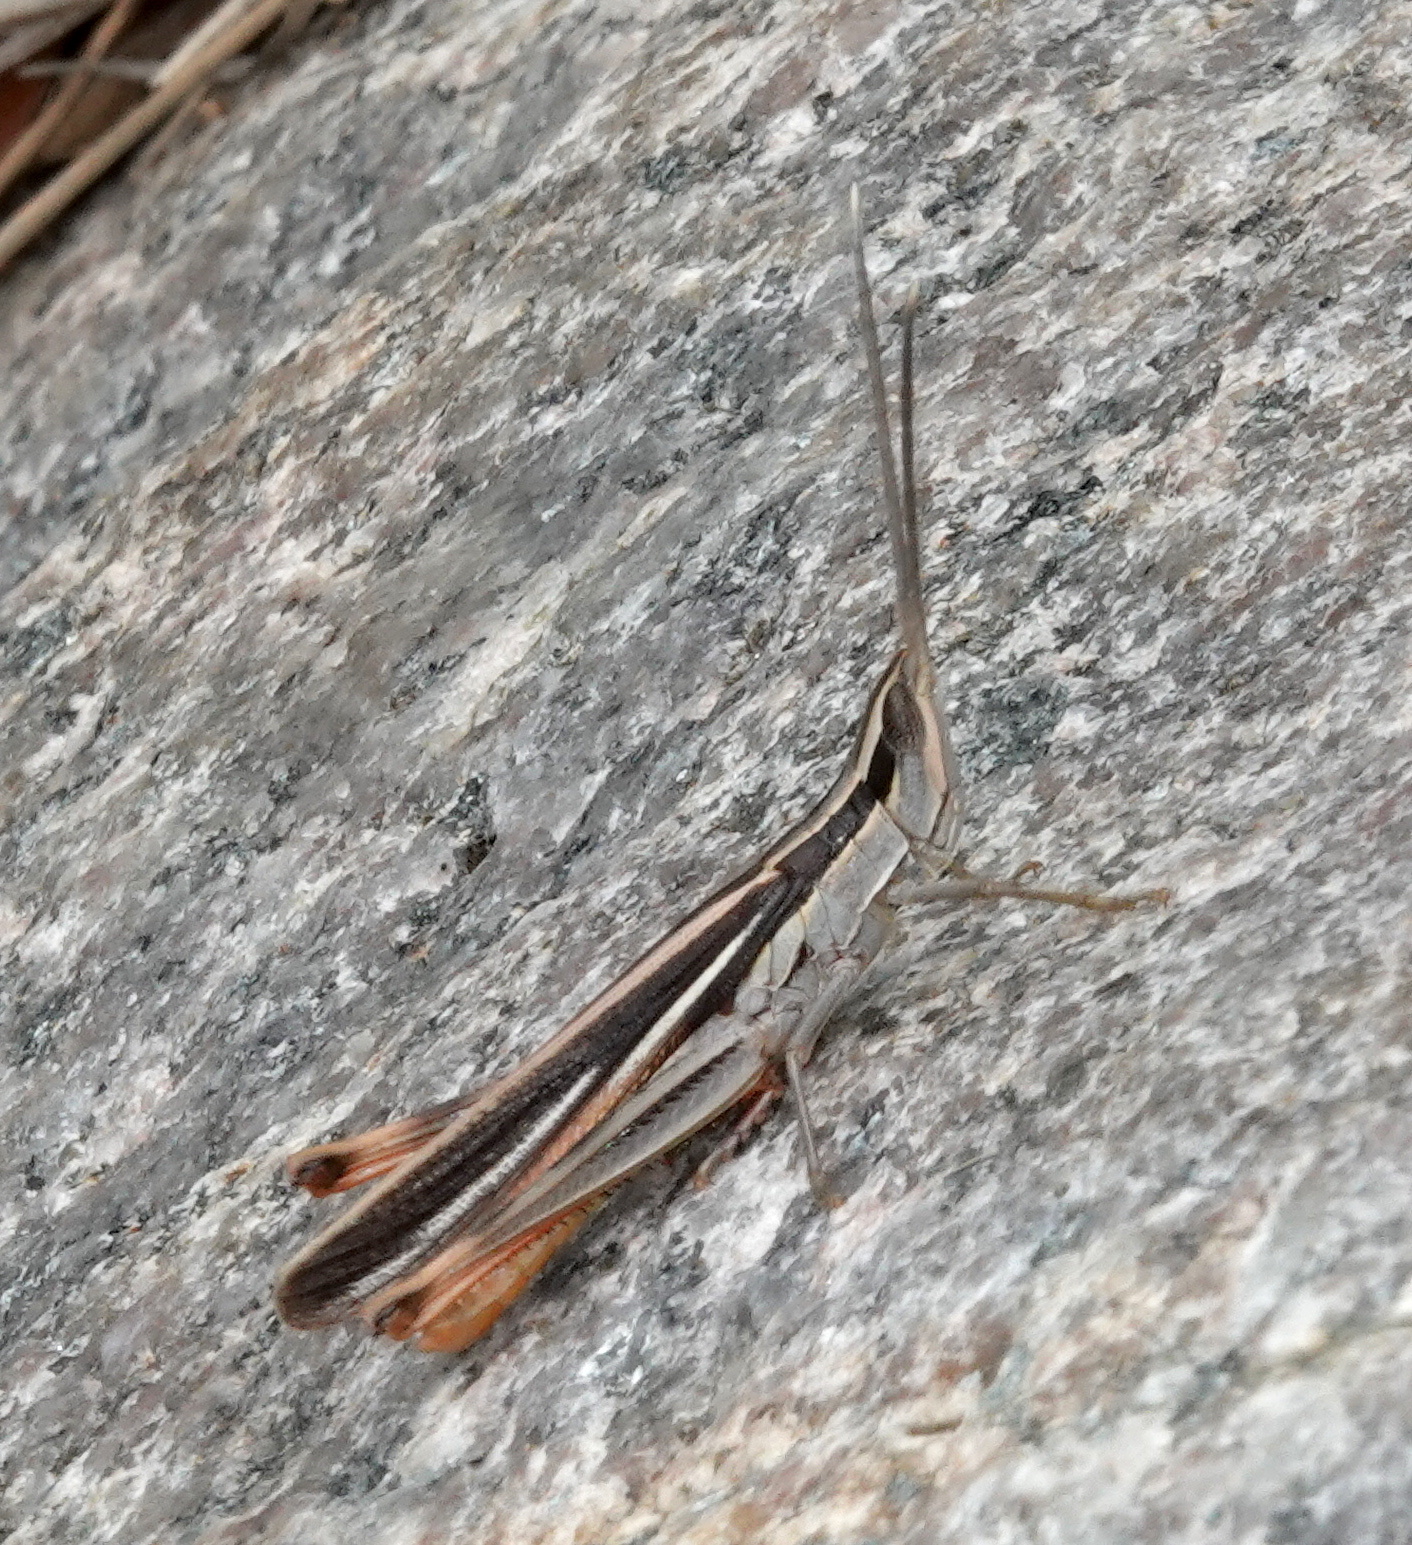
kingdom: Animalia
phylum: Arthropoda
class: Insecta
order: Orthoptera
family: Acrididae
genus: Mermiria
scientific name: Mermiria texana
